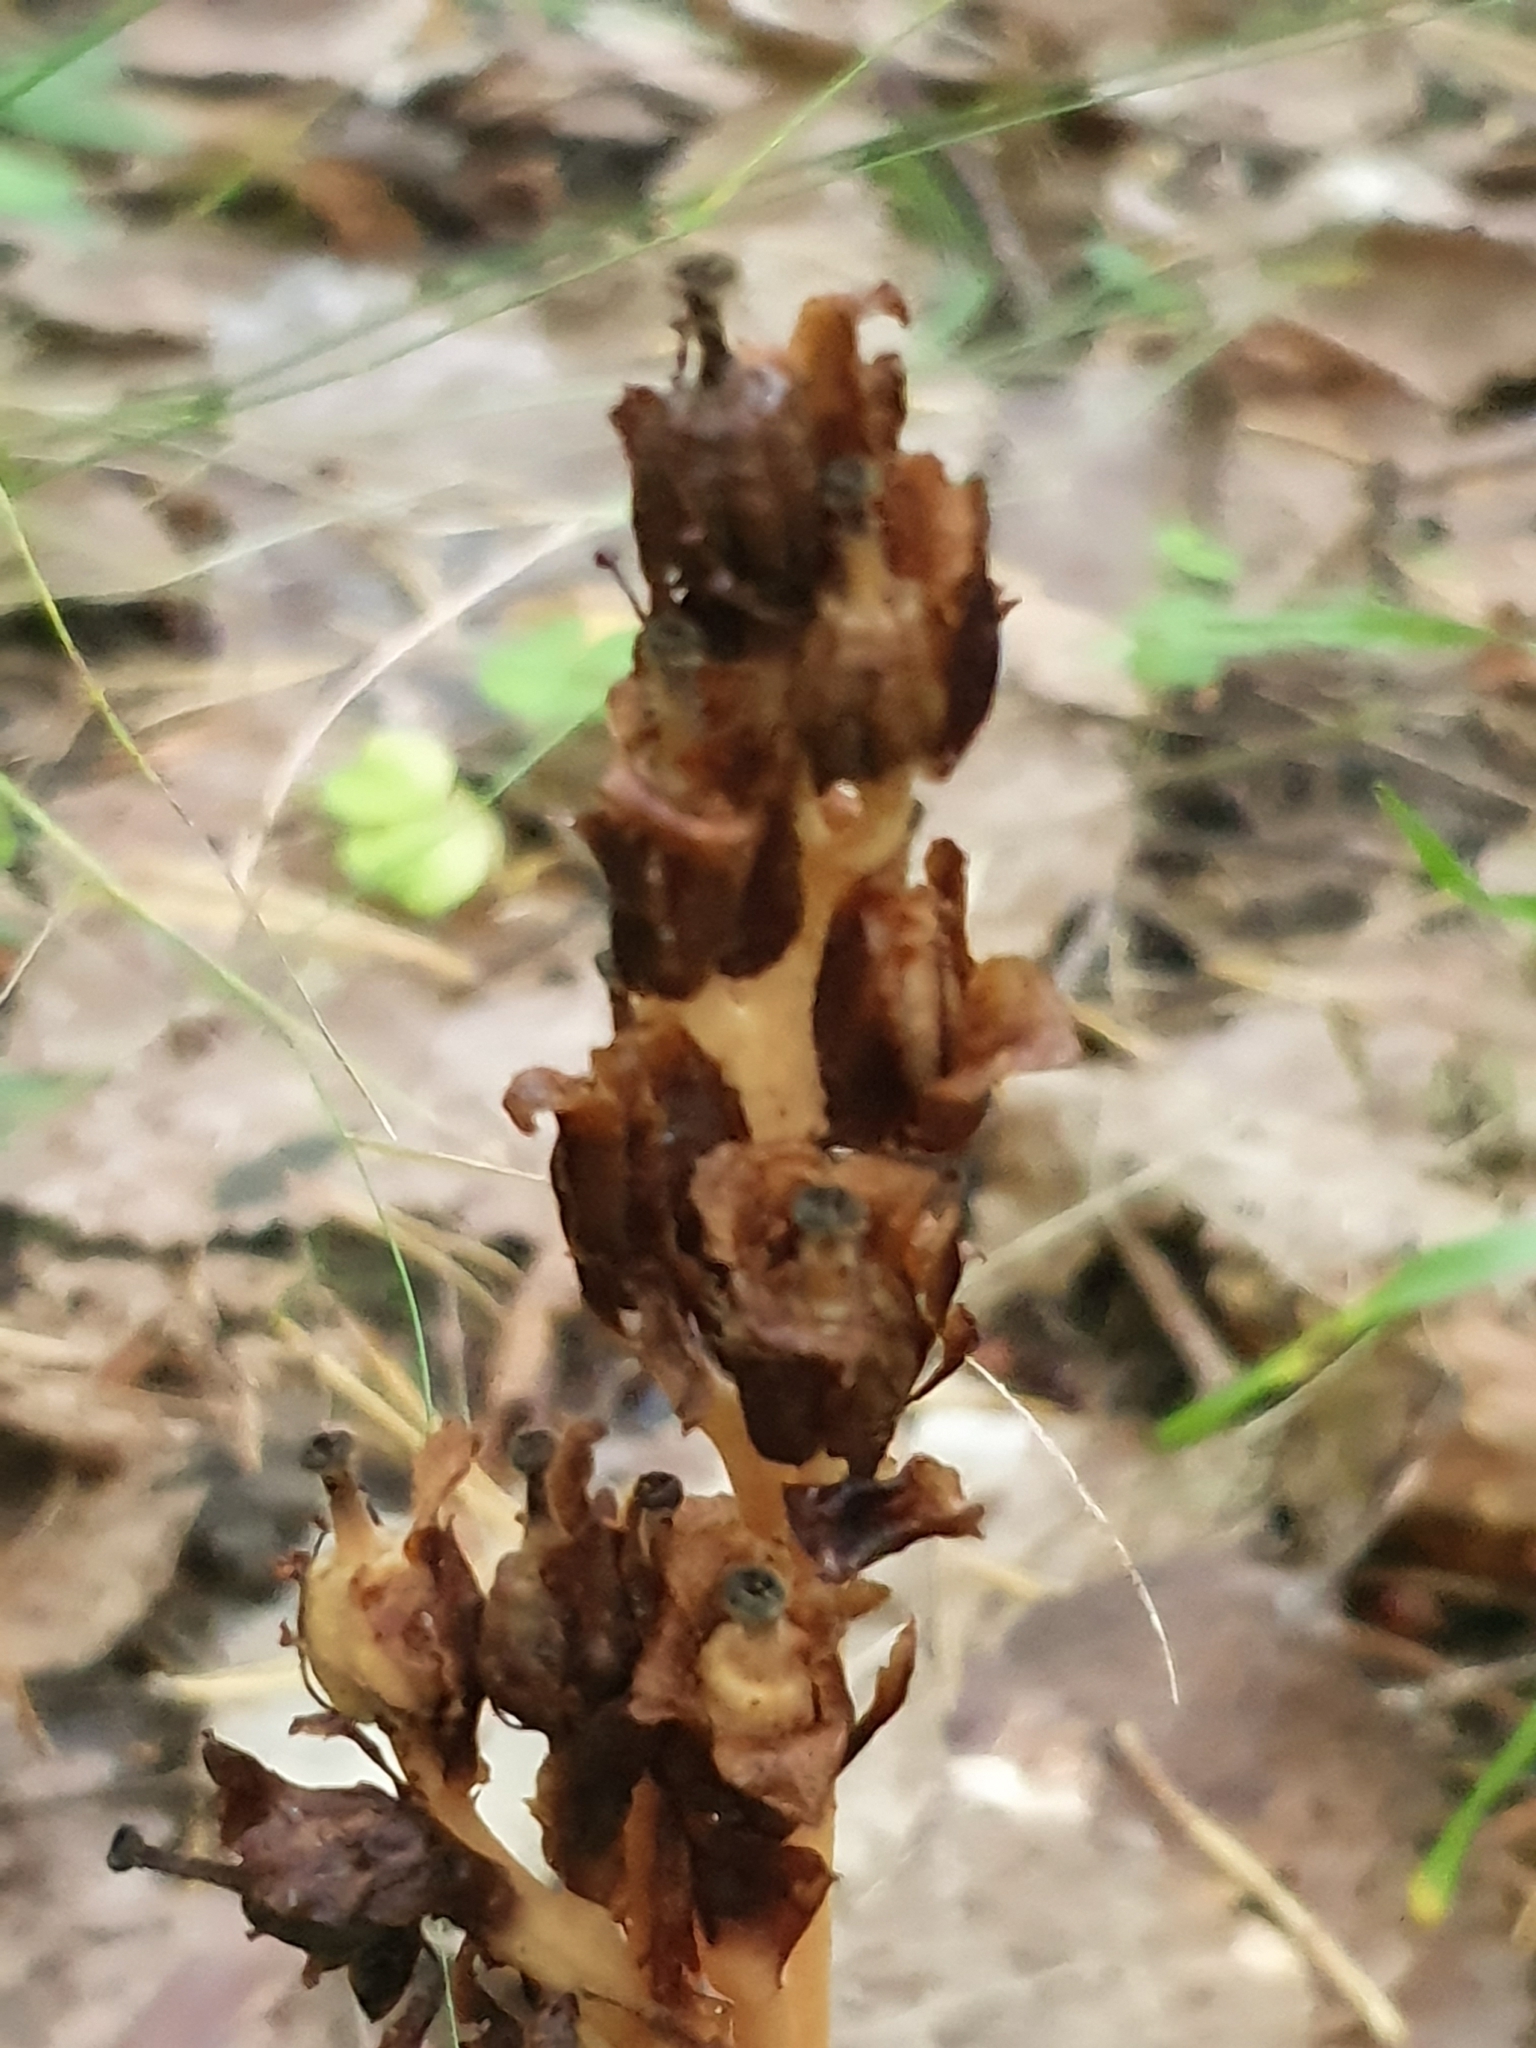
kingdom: Plantae
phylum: Tracheophyta
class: Magnoliopsida
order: Ericales
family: Ericaceae
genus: Hypopitys
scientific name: Hypopitys monotropa
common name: Yellow bird's-nest
